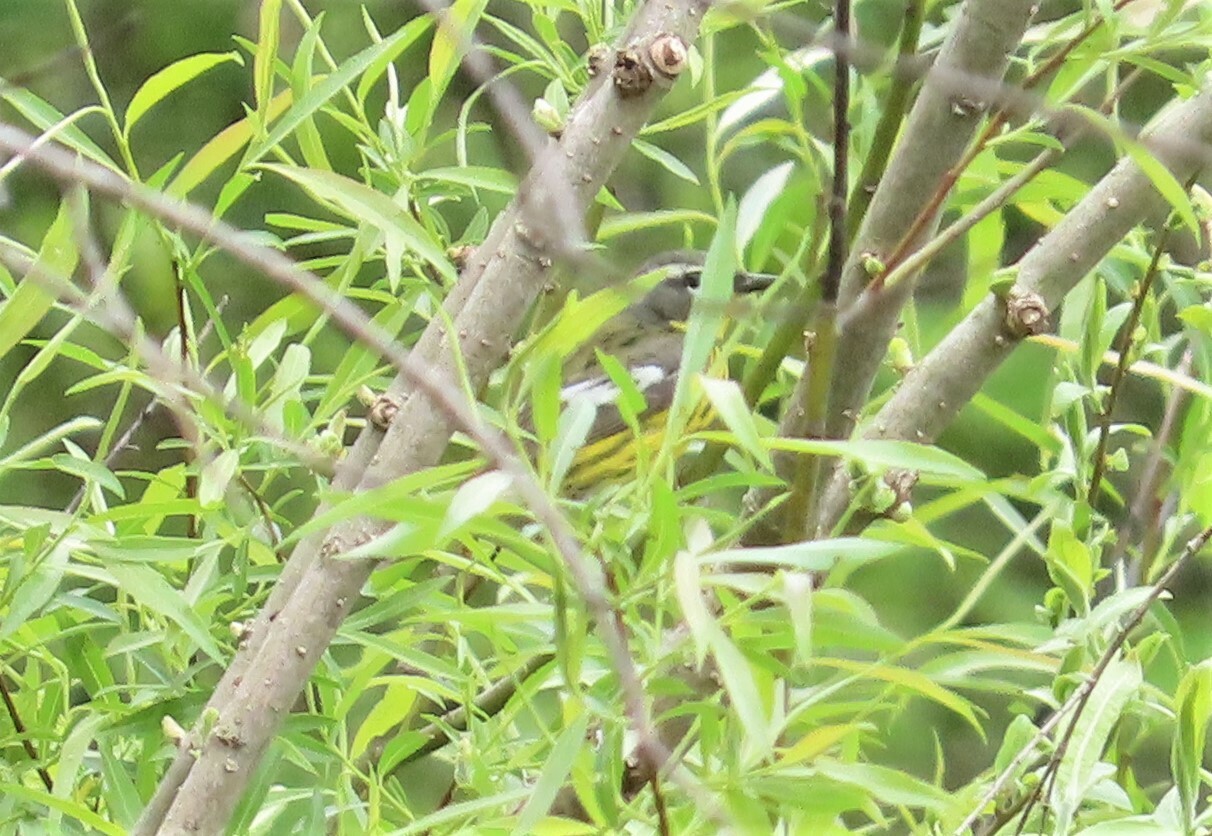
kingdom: Animalia
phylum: Chordata
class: Aves
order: Passeriformes
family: Parulidae
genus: Setophaga
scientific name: Setophaga magnolia
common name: Magnolia warbler
